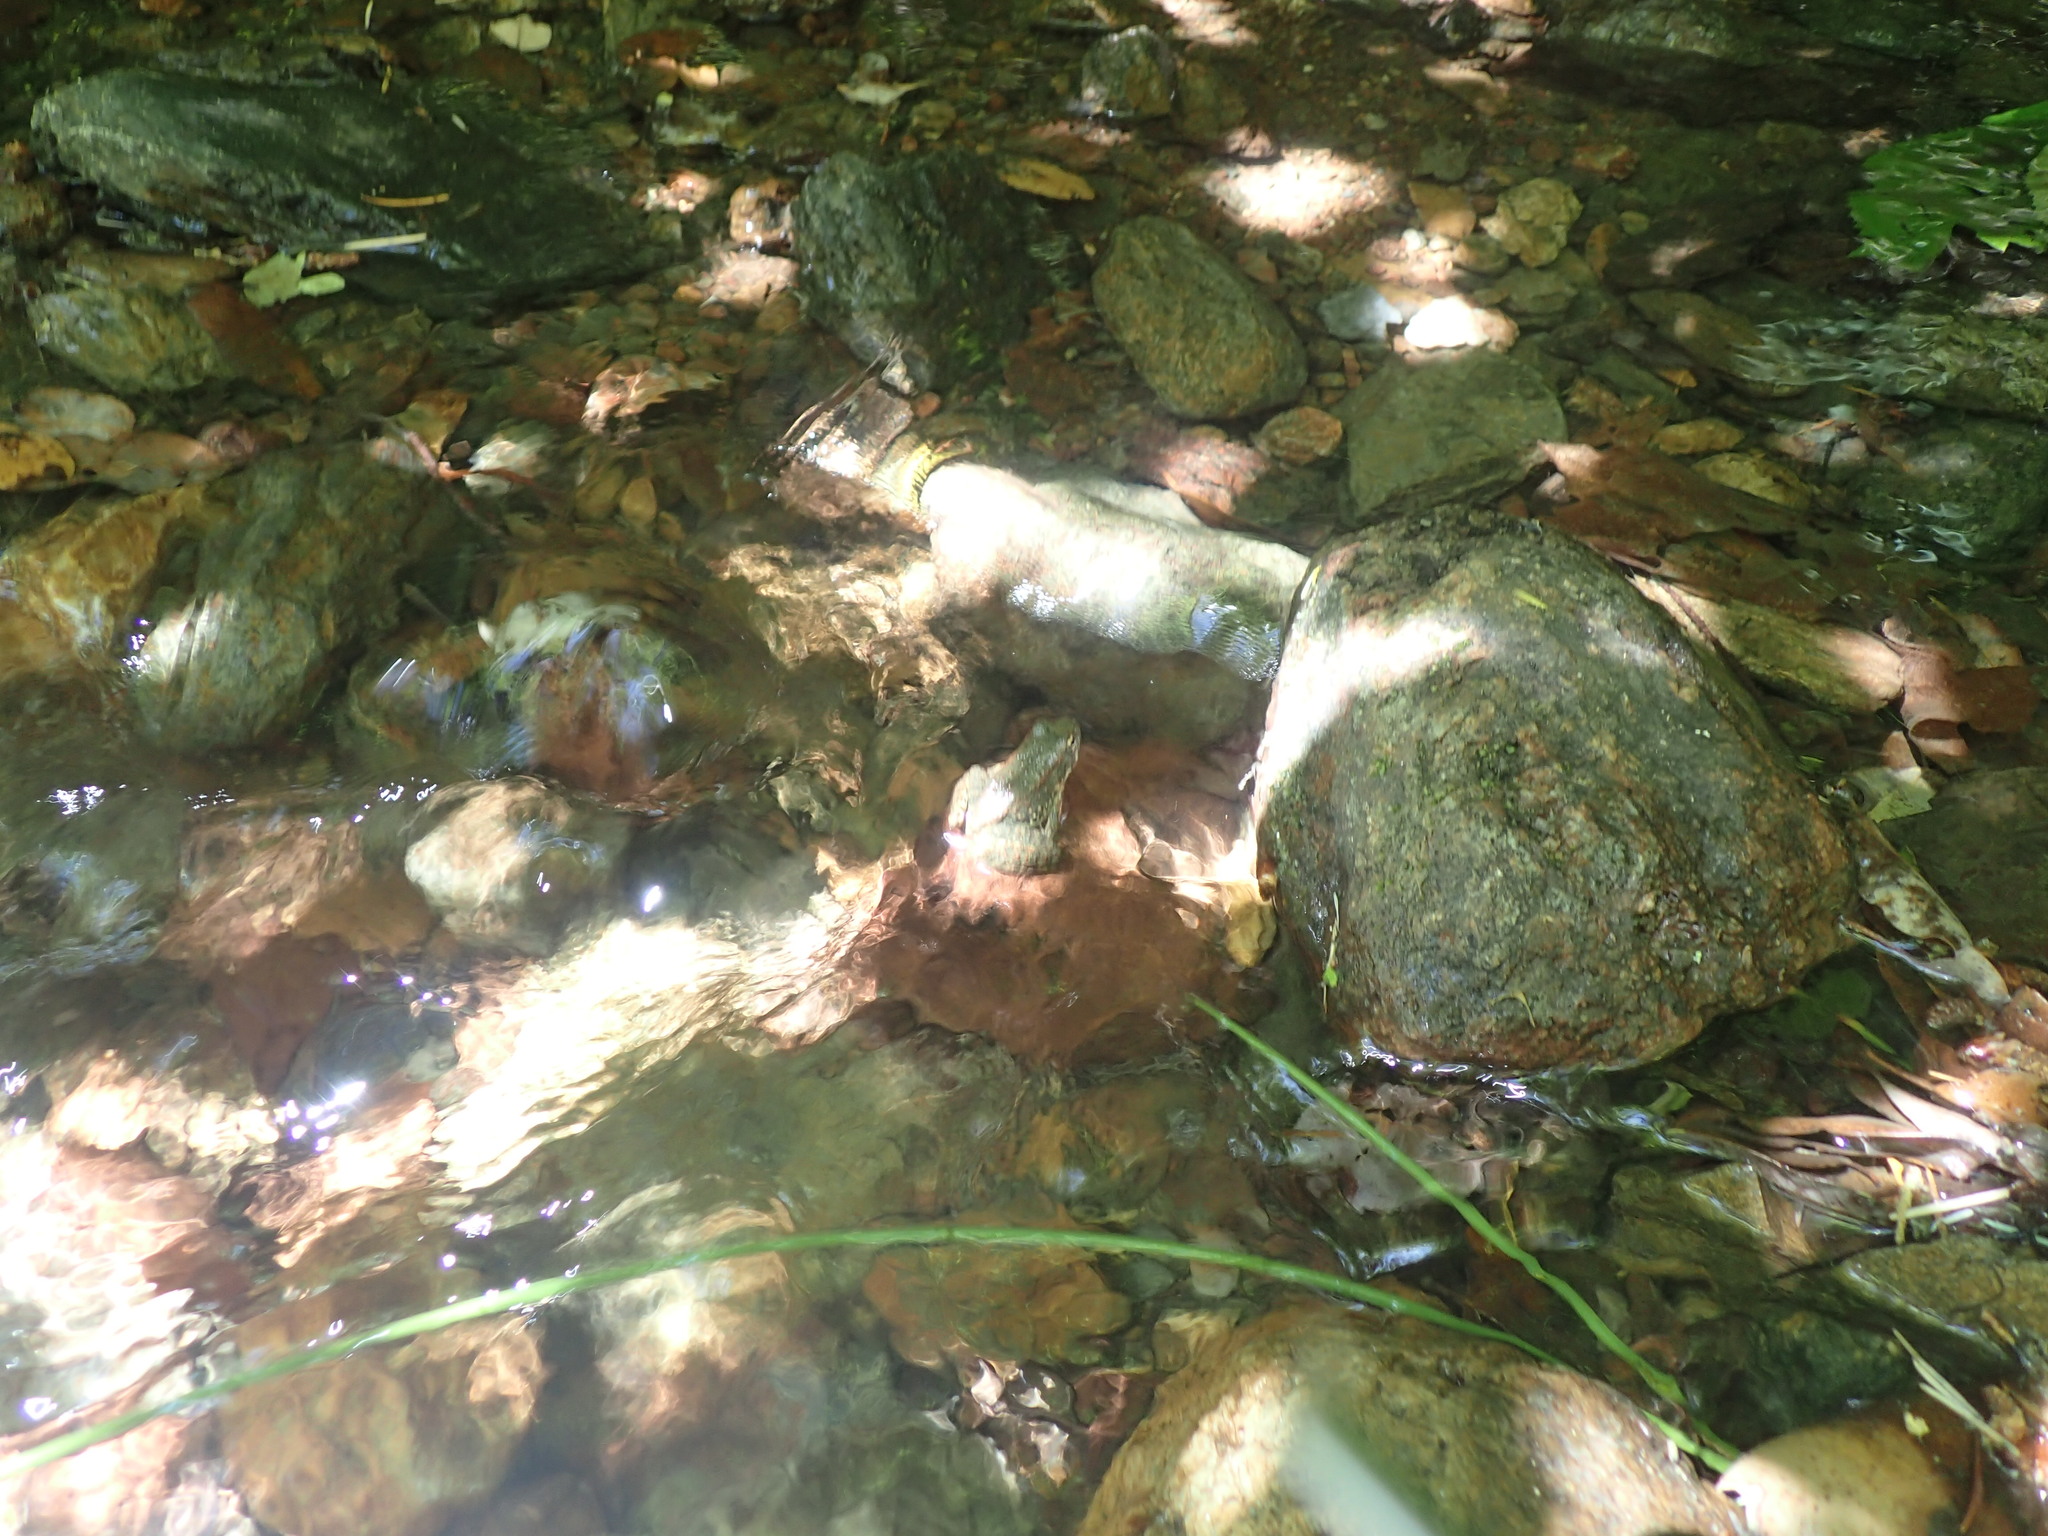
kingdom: Animalia
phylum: Chordata
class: Amphibia
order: Anura
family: Ranidae
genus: Rana
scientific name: Rana boylii
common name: Foothill yellow-legged frog
